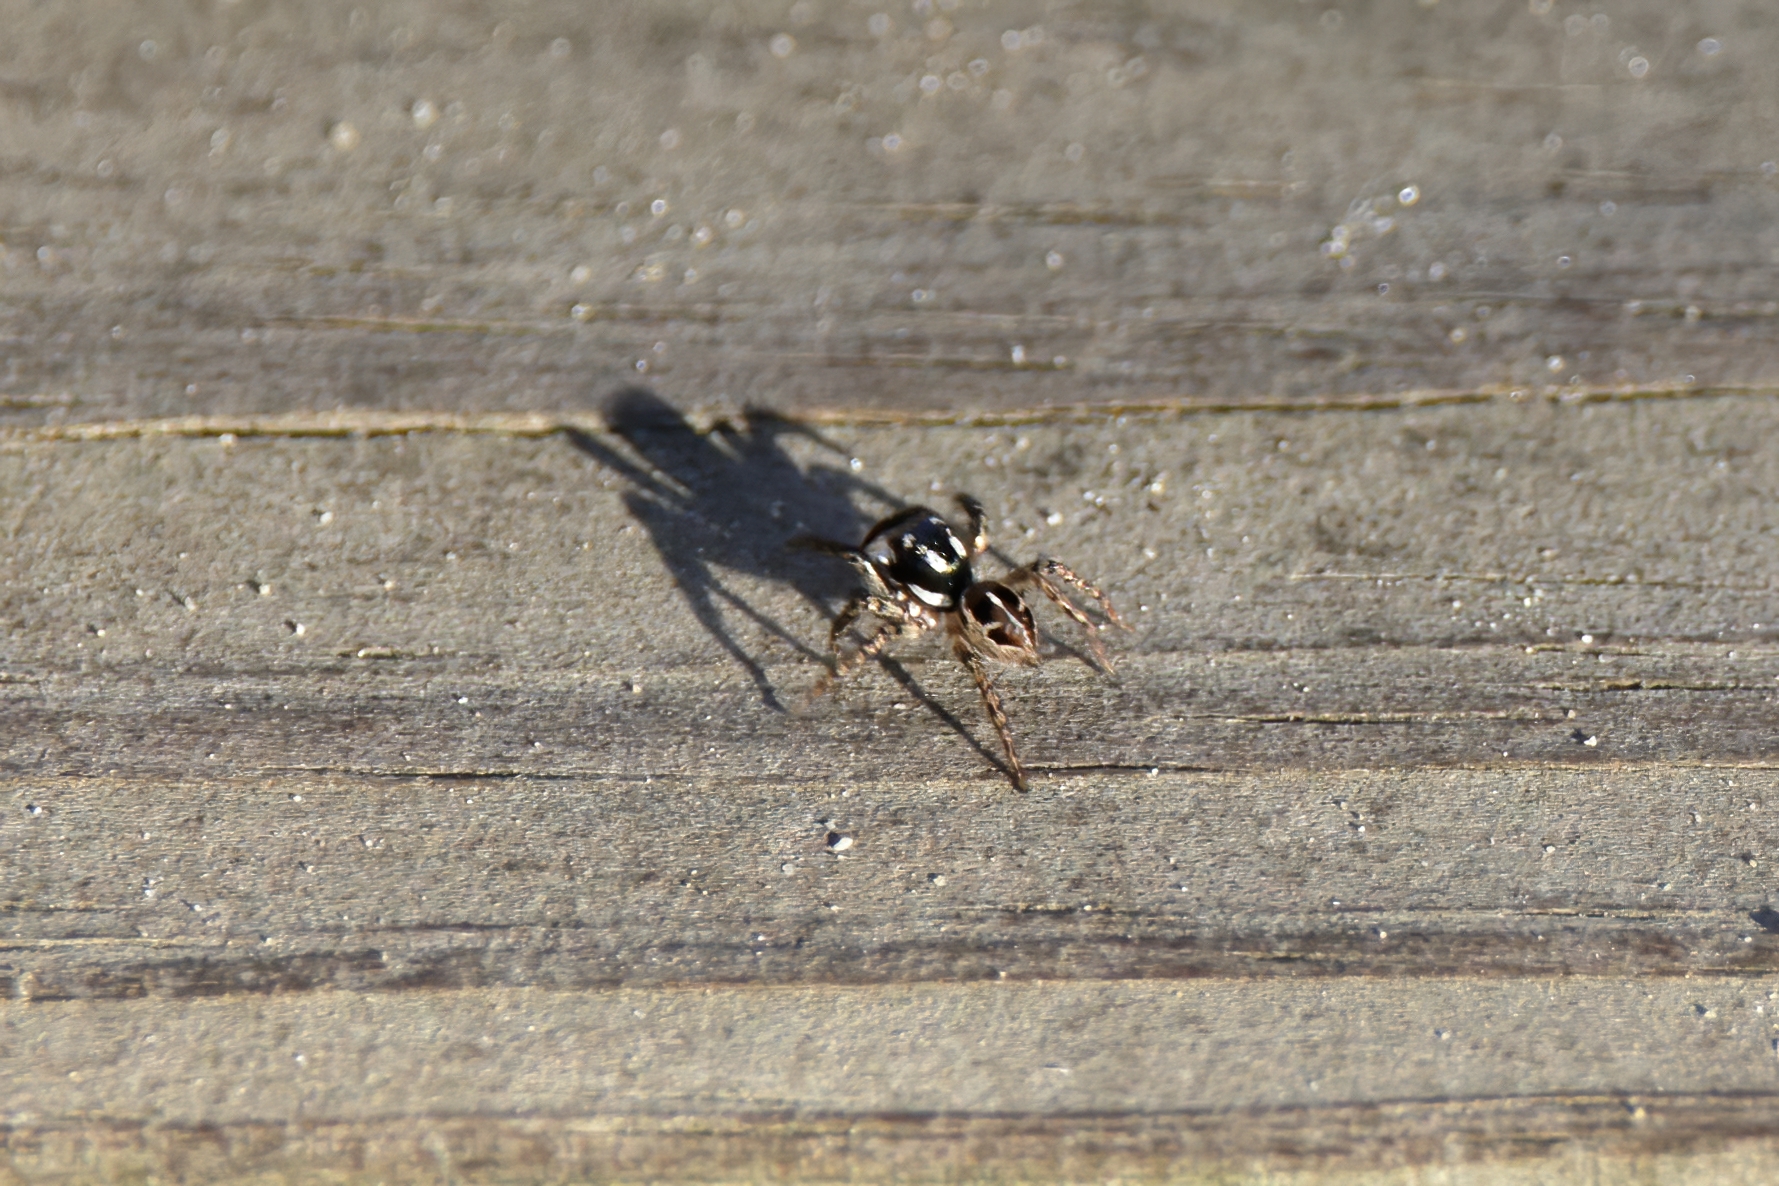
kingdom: Animalia
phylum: Arthropoda
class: Arachnida
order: Araneae
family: Salticidae
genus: Anasaitis
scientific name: Anasaitis canosa
